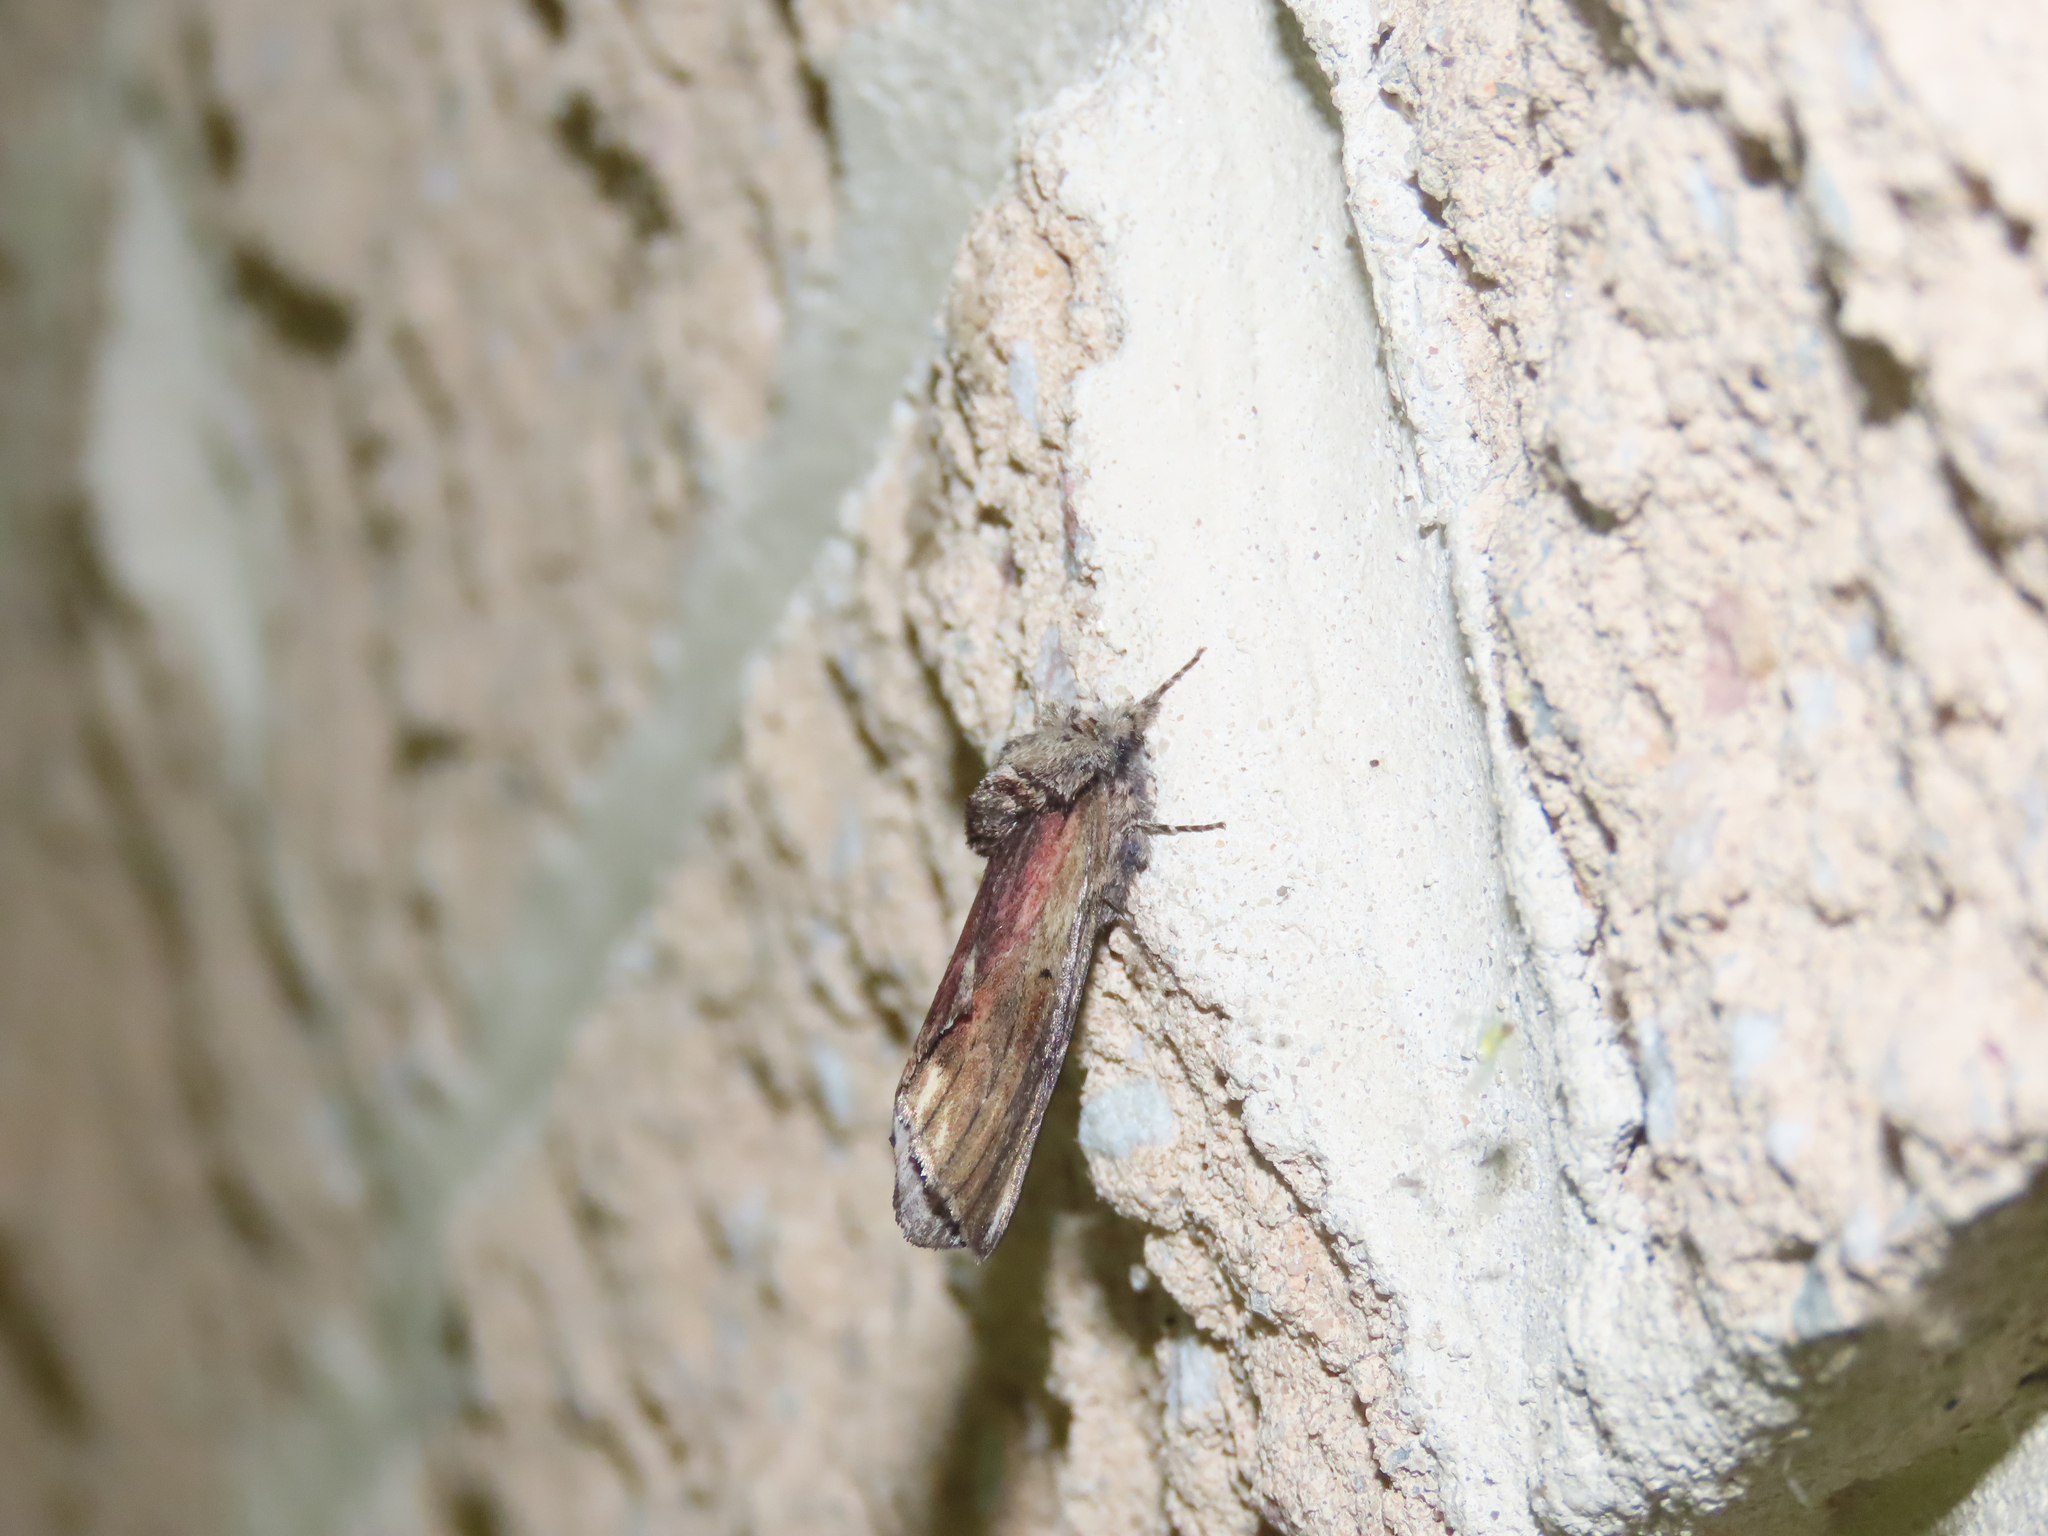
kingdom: Animalia
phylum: Arthropoda
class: Insecta
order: Lepidoptera
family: Notodontidae
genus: Schizura
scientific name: Schizura
